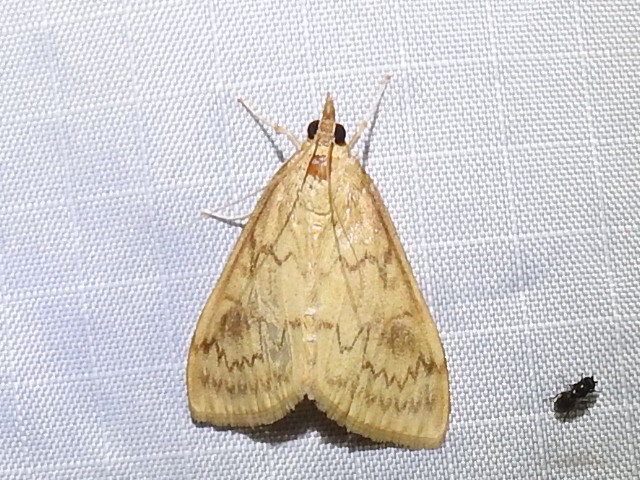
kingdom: Animalia
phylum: Arthropoda
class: Insecta
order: Lepidoptera
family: Crambidae
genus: Ostrinia
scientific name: Ostrinia penitalis
